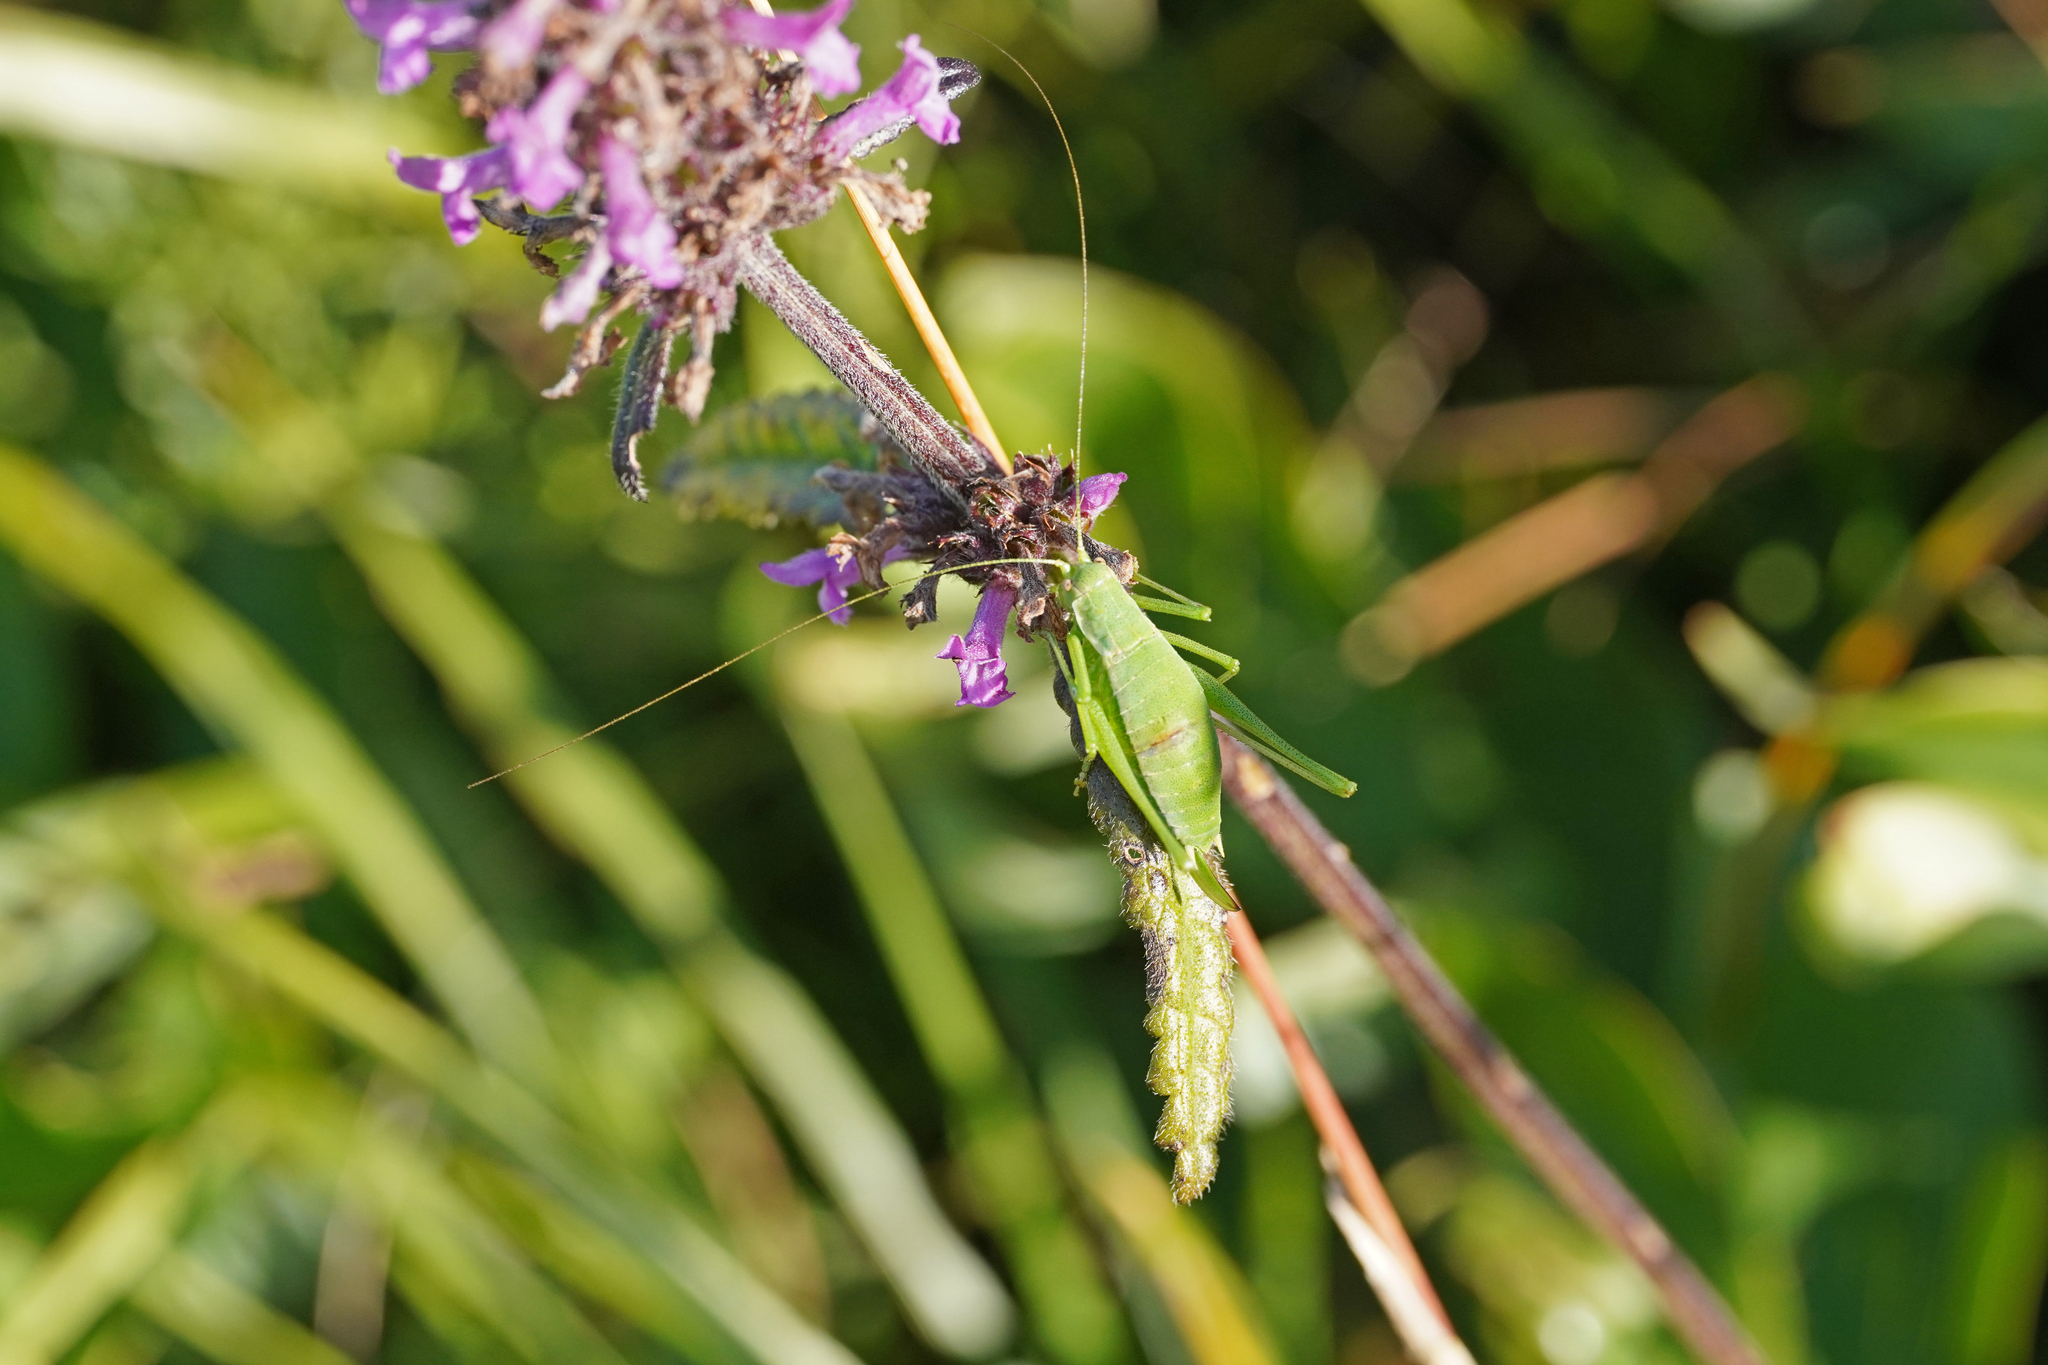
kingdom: Animalia
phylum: Arthropoda
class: Insecta
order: Orthoptera
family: Tettigoniidae
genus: Leptophyes
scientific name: Leptophyes boscii
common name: Balkan speckled bush-cricket
